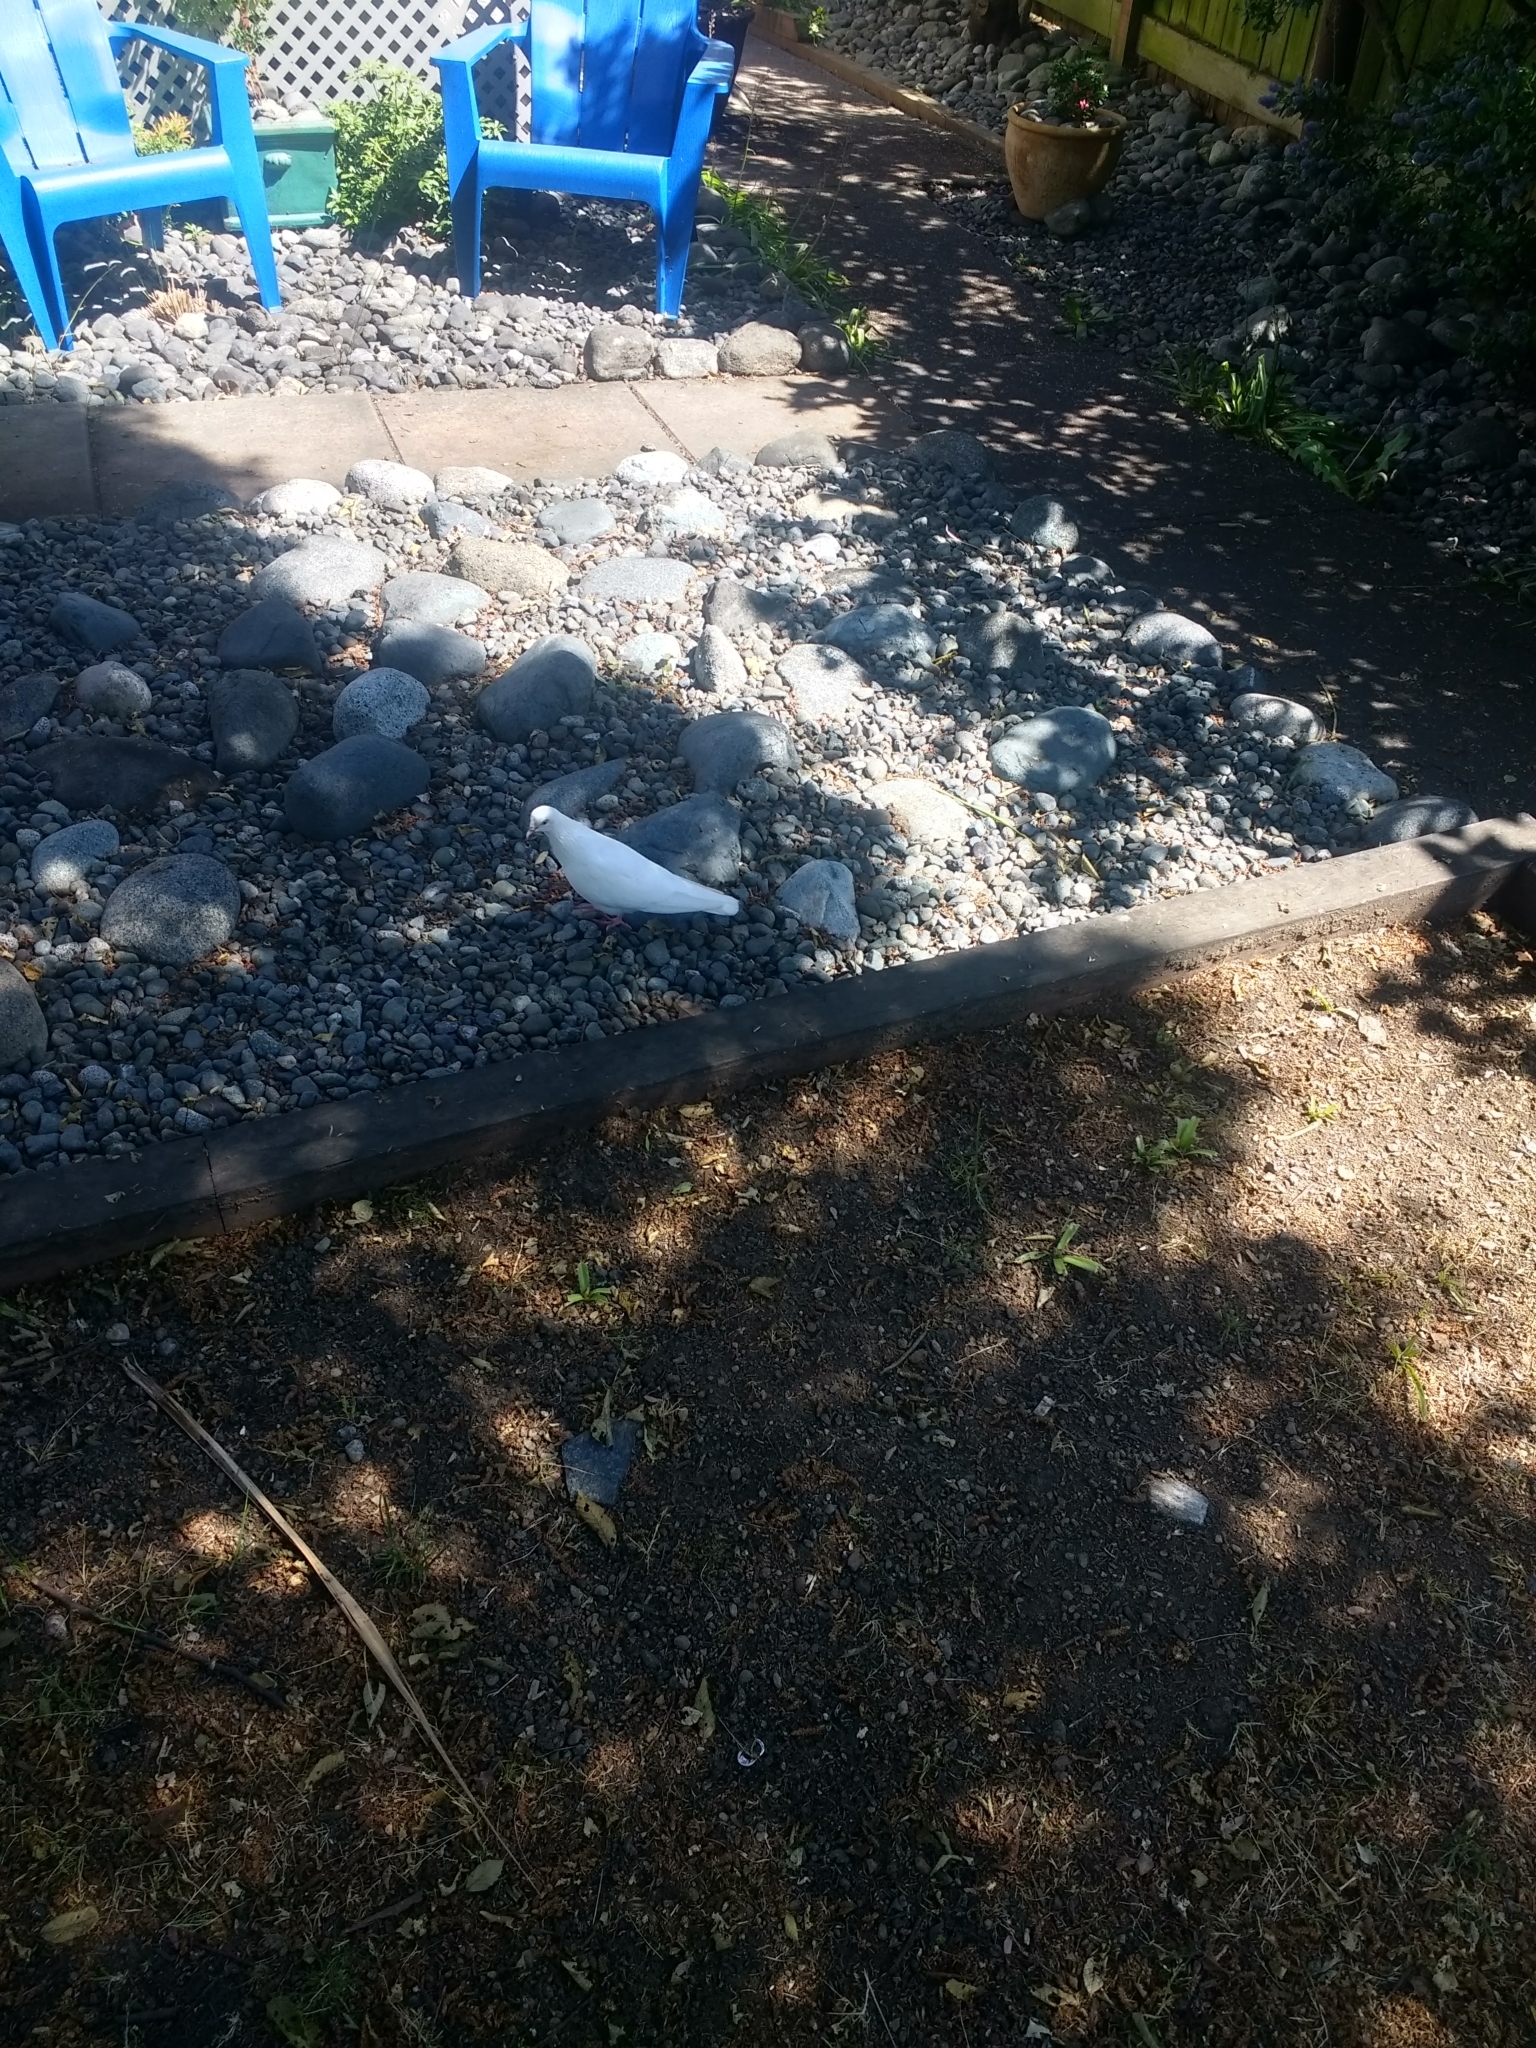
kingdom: Animalia
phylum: Chordata
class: Aves
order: Columbiformes
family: Columbidae
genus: Columba
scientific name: Columba livia
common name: Rock pigeon
